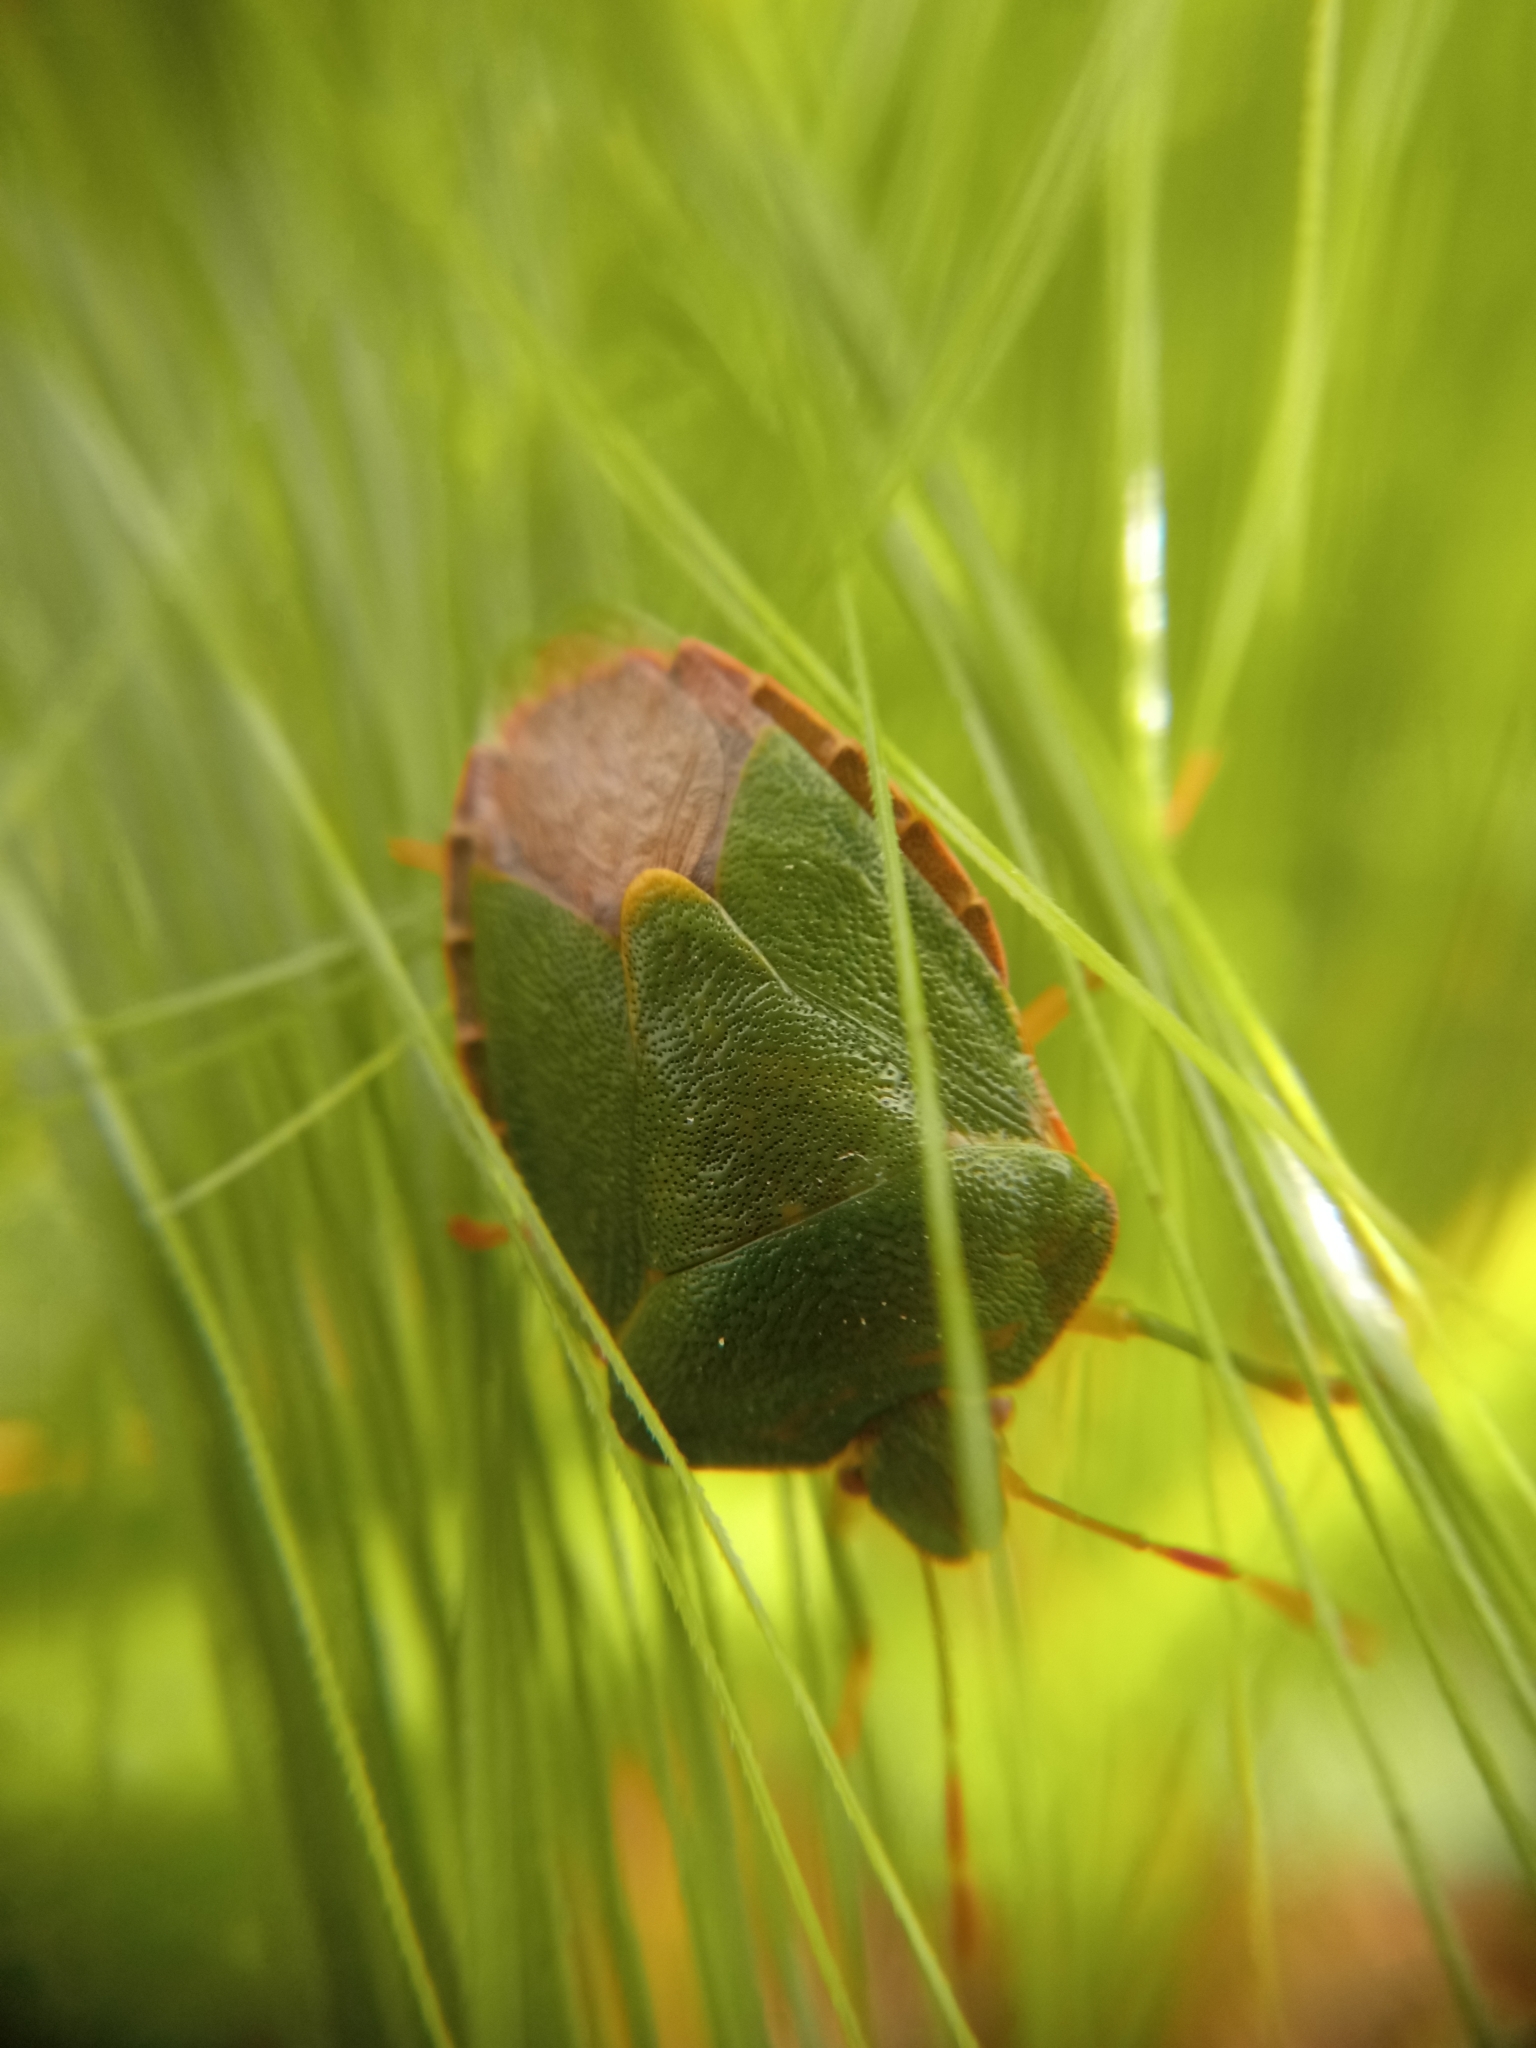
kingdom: Animalia
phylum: Arthropoda
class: Insecta
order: Hemiptera
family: Pentatomidae
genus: Palomena
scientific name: Palomena prasina
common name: Green shieldbug
